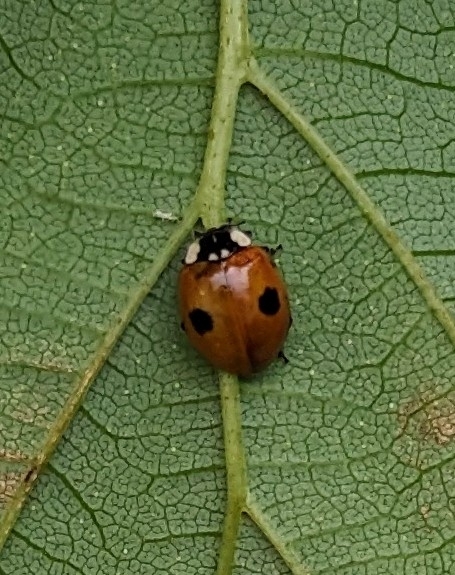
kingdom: Animalia
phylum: Arthropoda
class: Insecta
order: Coleoptera
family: Coccinellidae
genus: Adalia
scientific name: Adalia bipunctata
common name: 2-spot ladybird
